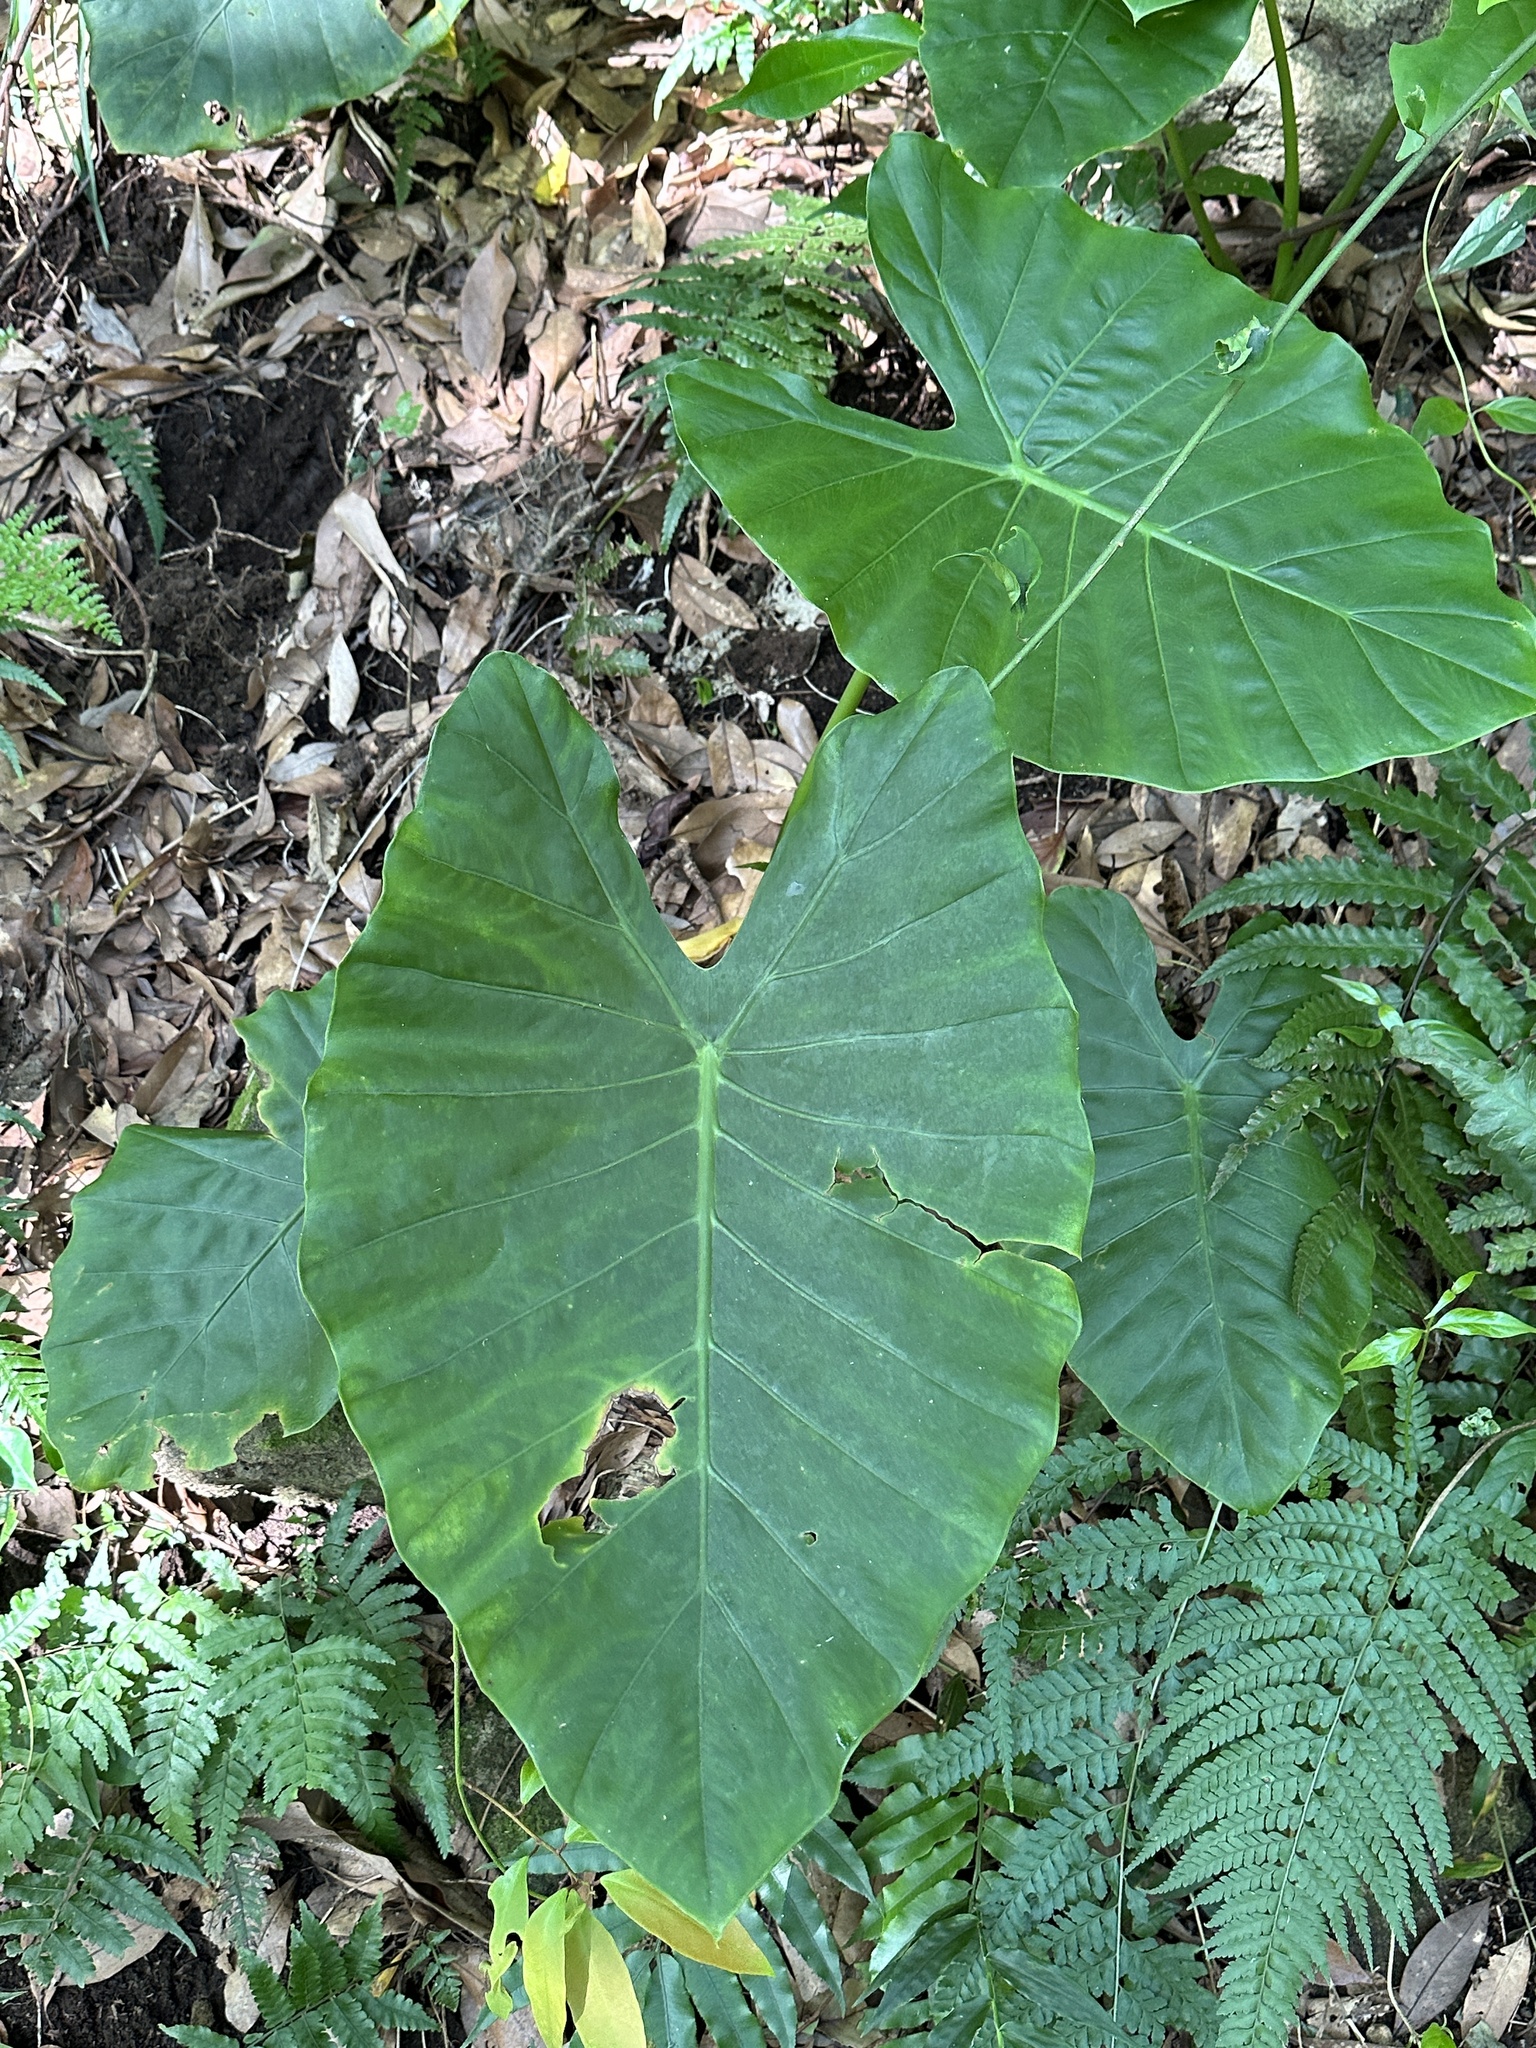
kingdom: Plantae
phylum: Tracheophyta
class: Liliopsida
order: Alismatales
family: Araceae
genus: Alocasia
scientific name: Alocasia odora
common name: Asian taro
